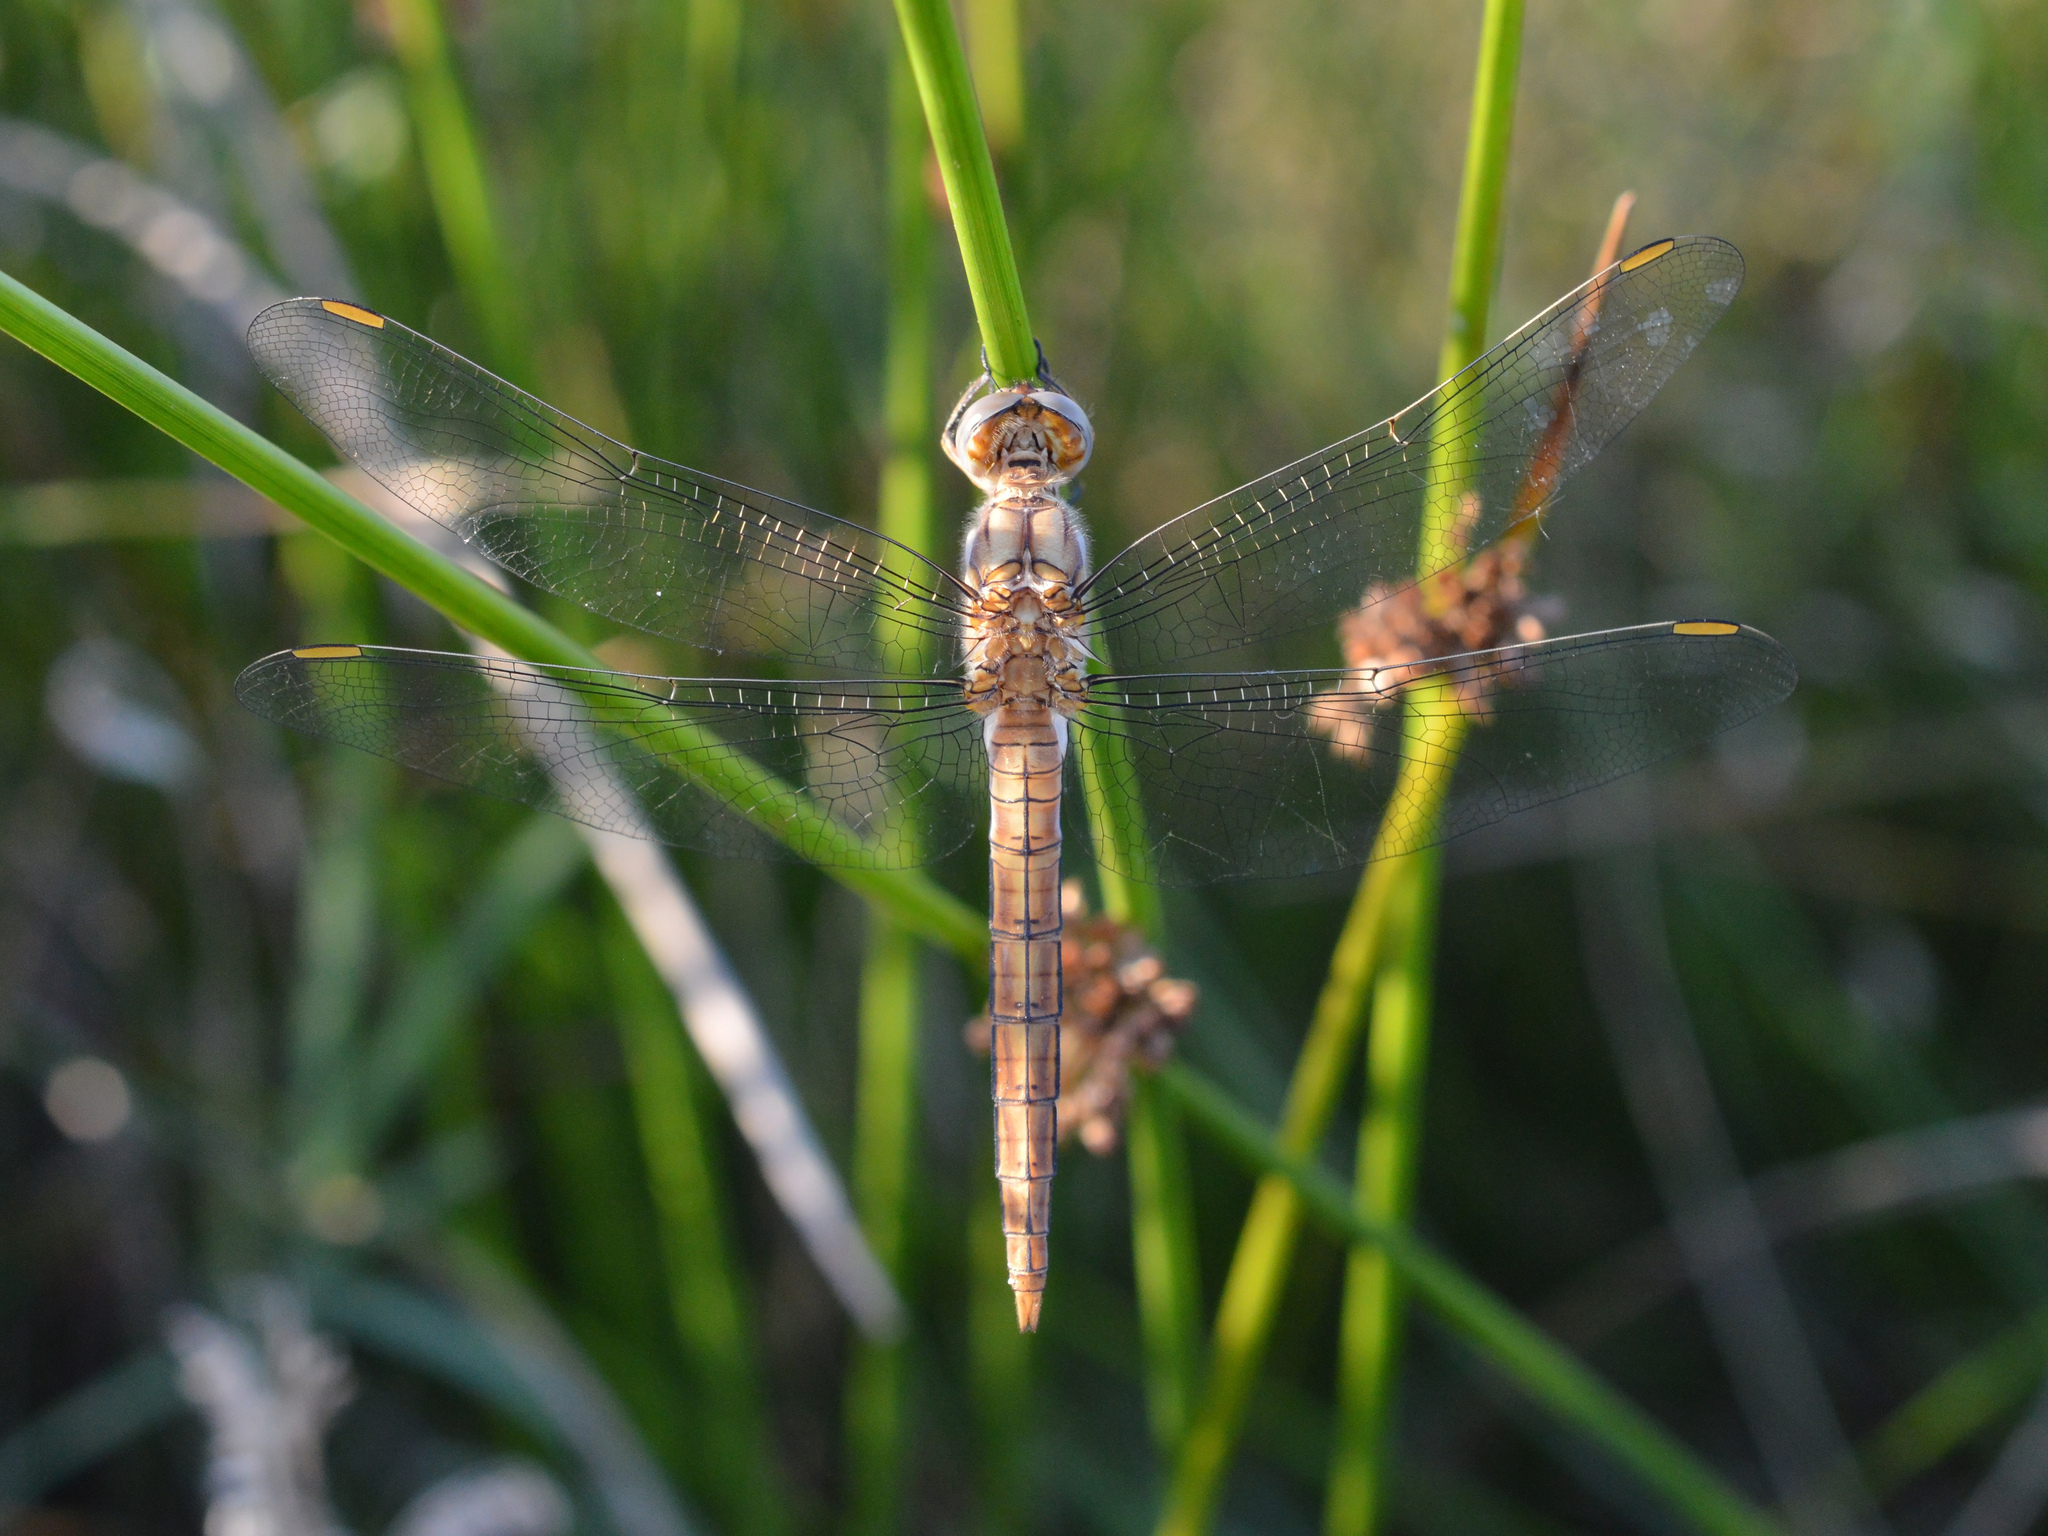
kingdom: Animalia
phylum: Arthropoda
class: Insecta
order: Odonata
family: Libellulidae
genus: Orthetrum
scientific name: Orthetrum brunneum
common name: Southern skimmer
